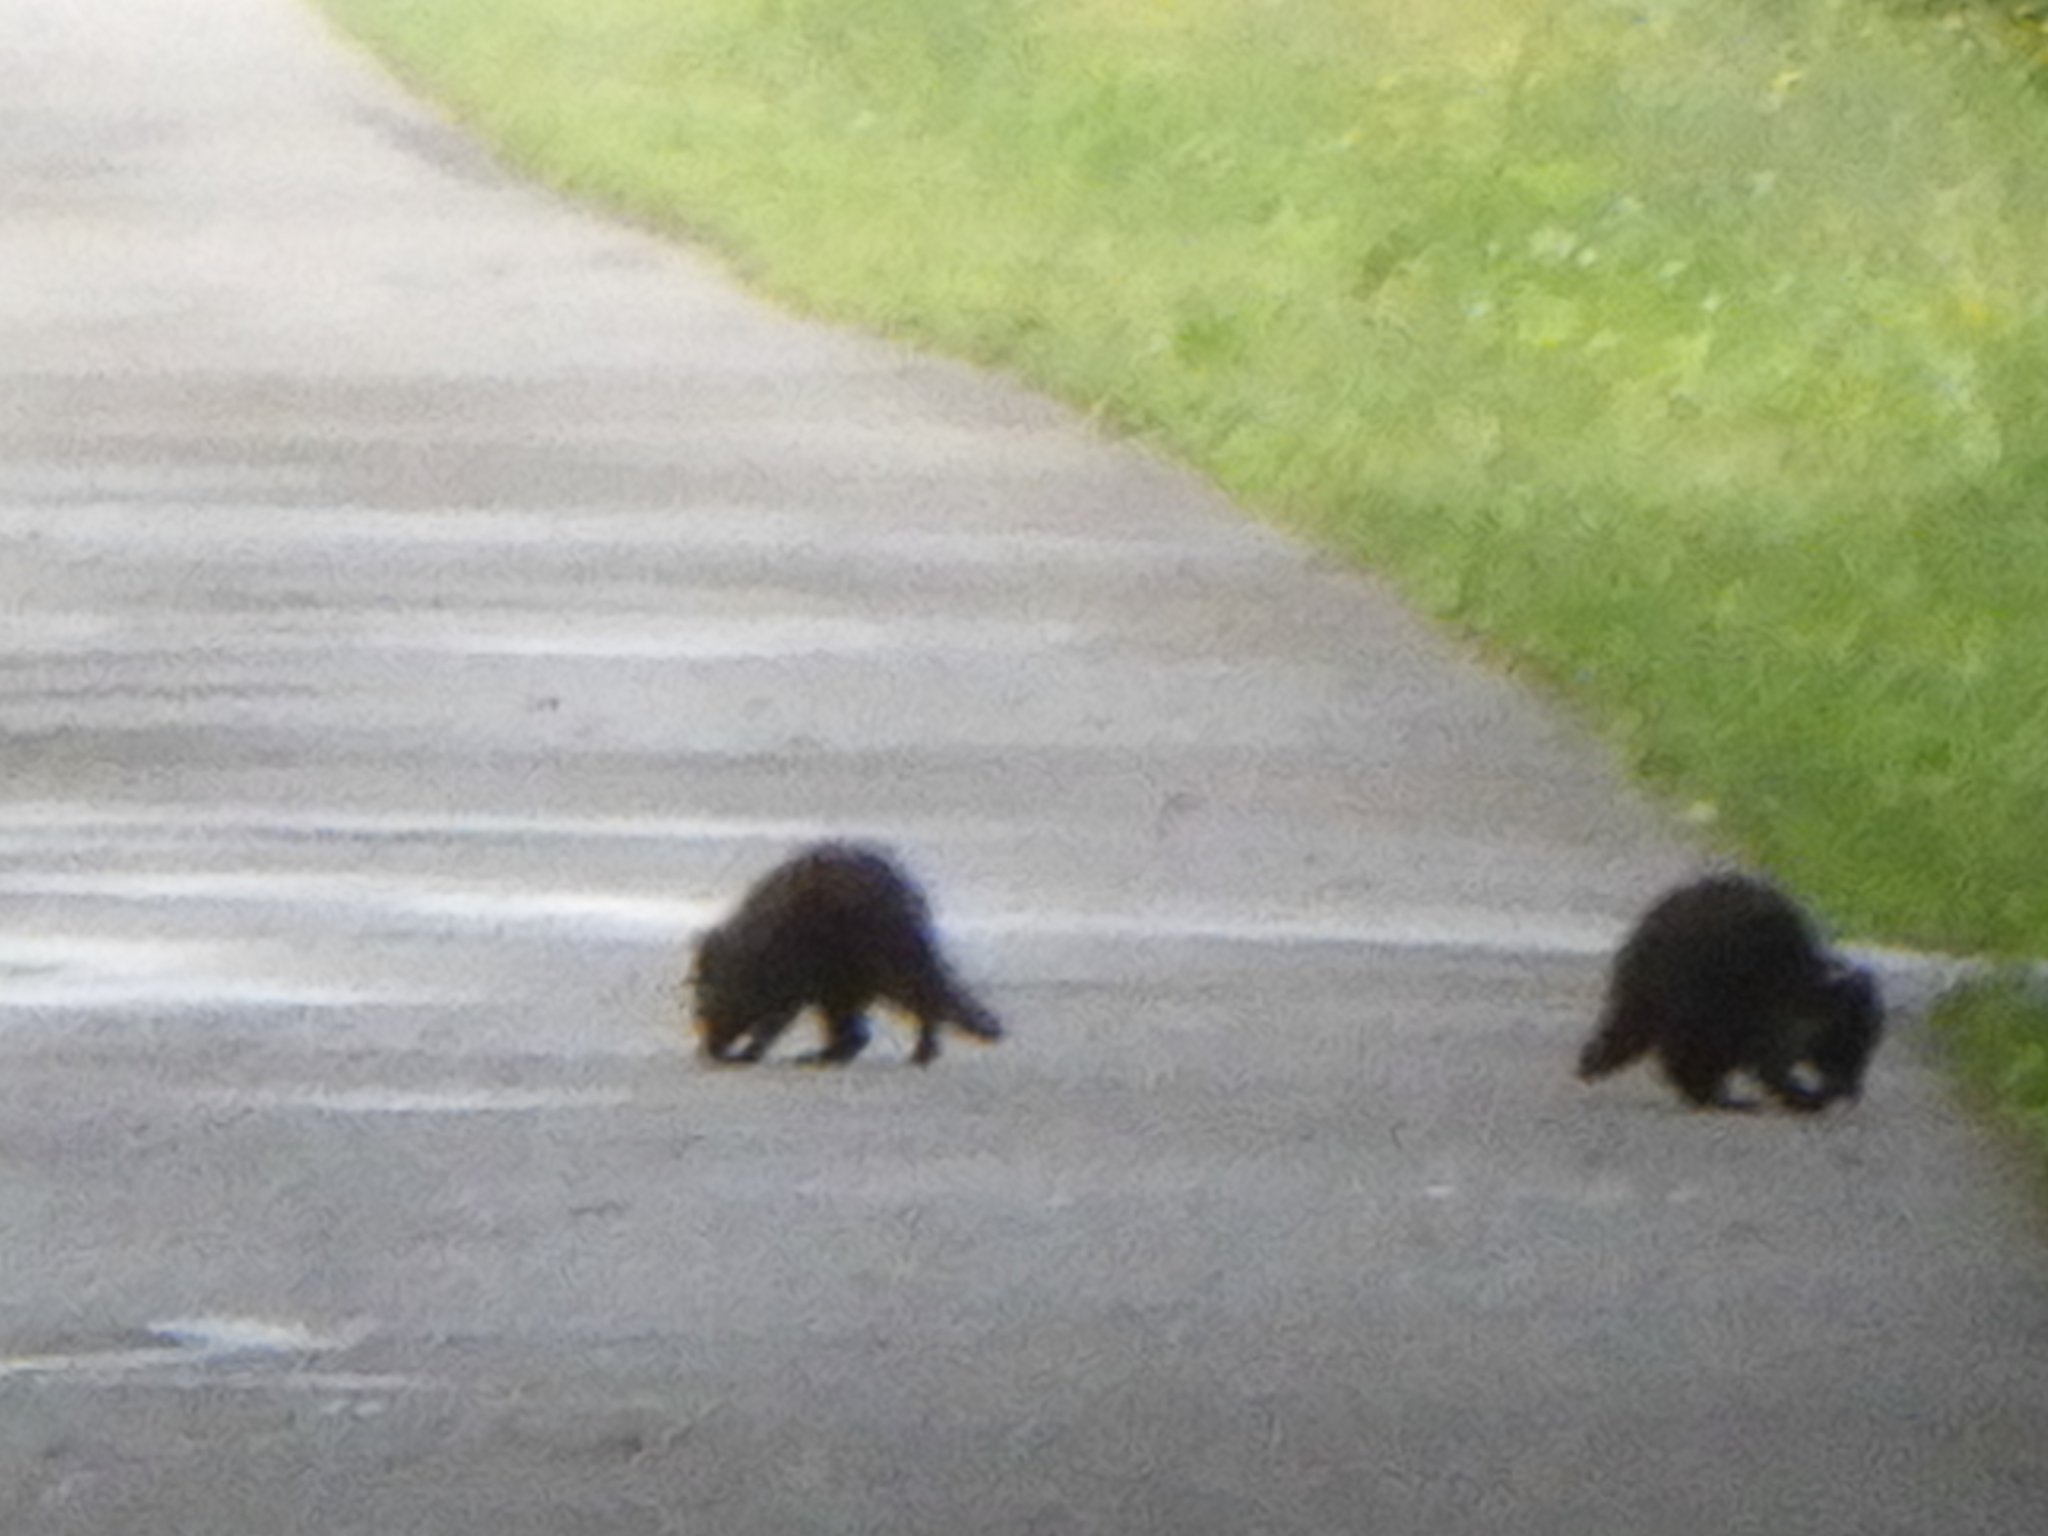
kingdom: Animalia
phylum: Chordata
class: Mammalia
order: Carnivora
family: Procyonidae
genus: Procyon
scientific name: Procyon lotor
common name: Raccoon
